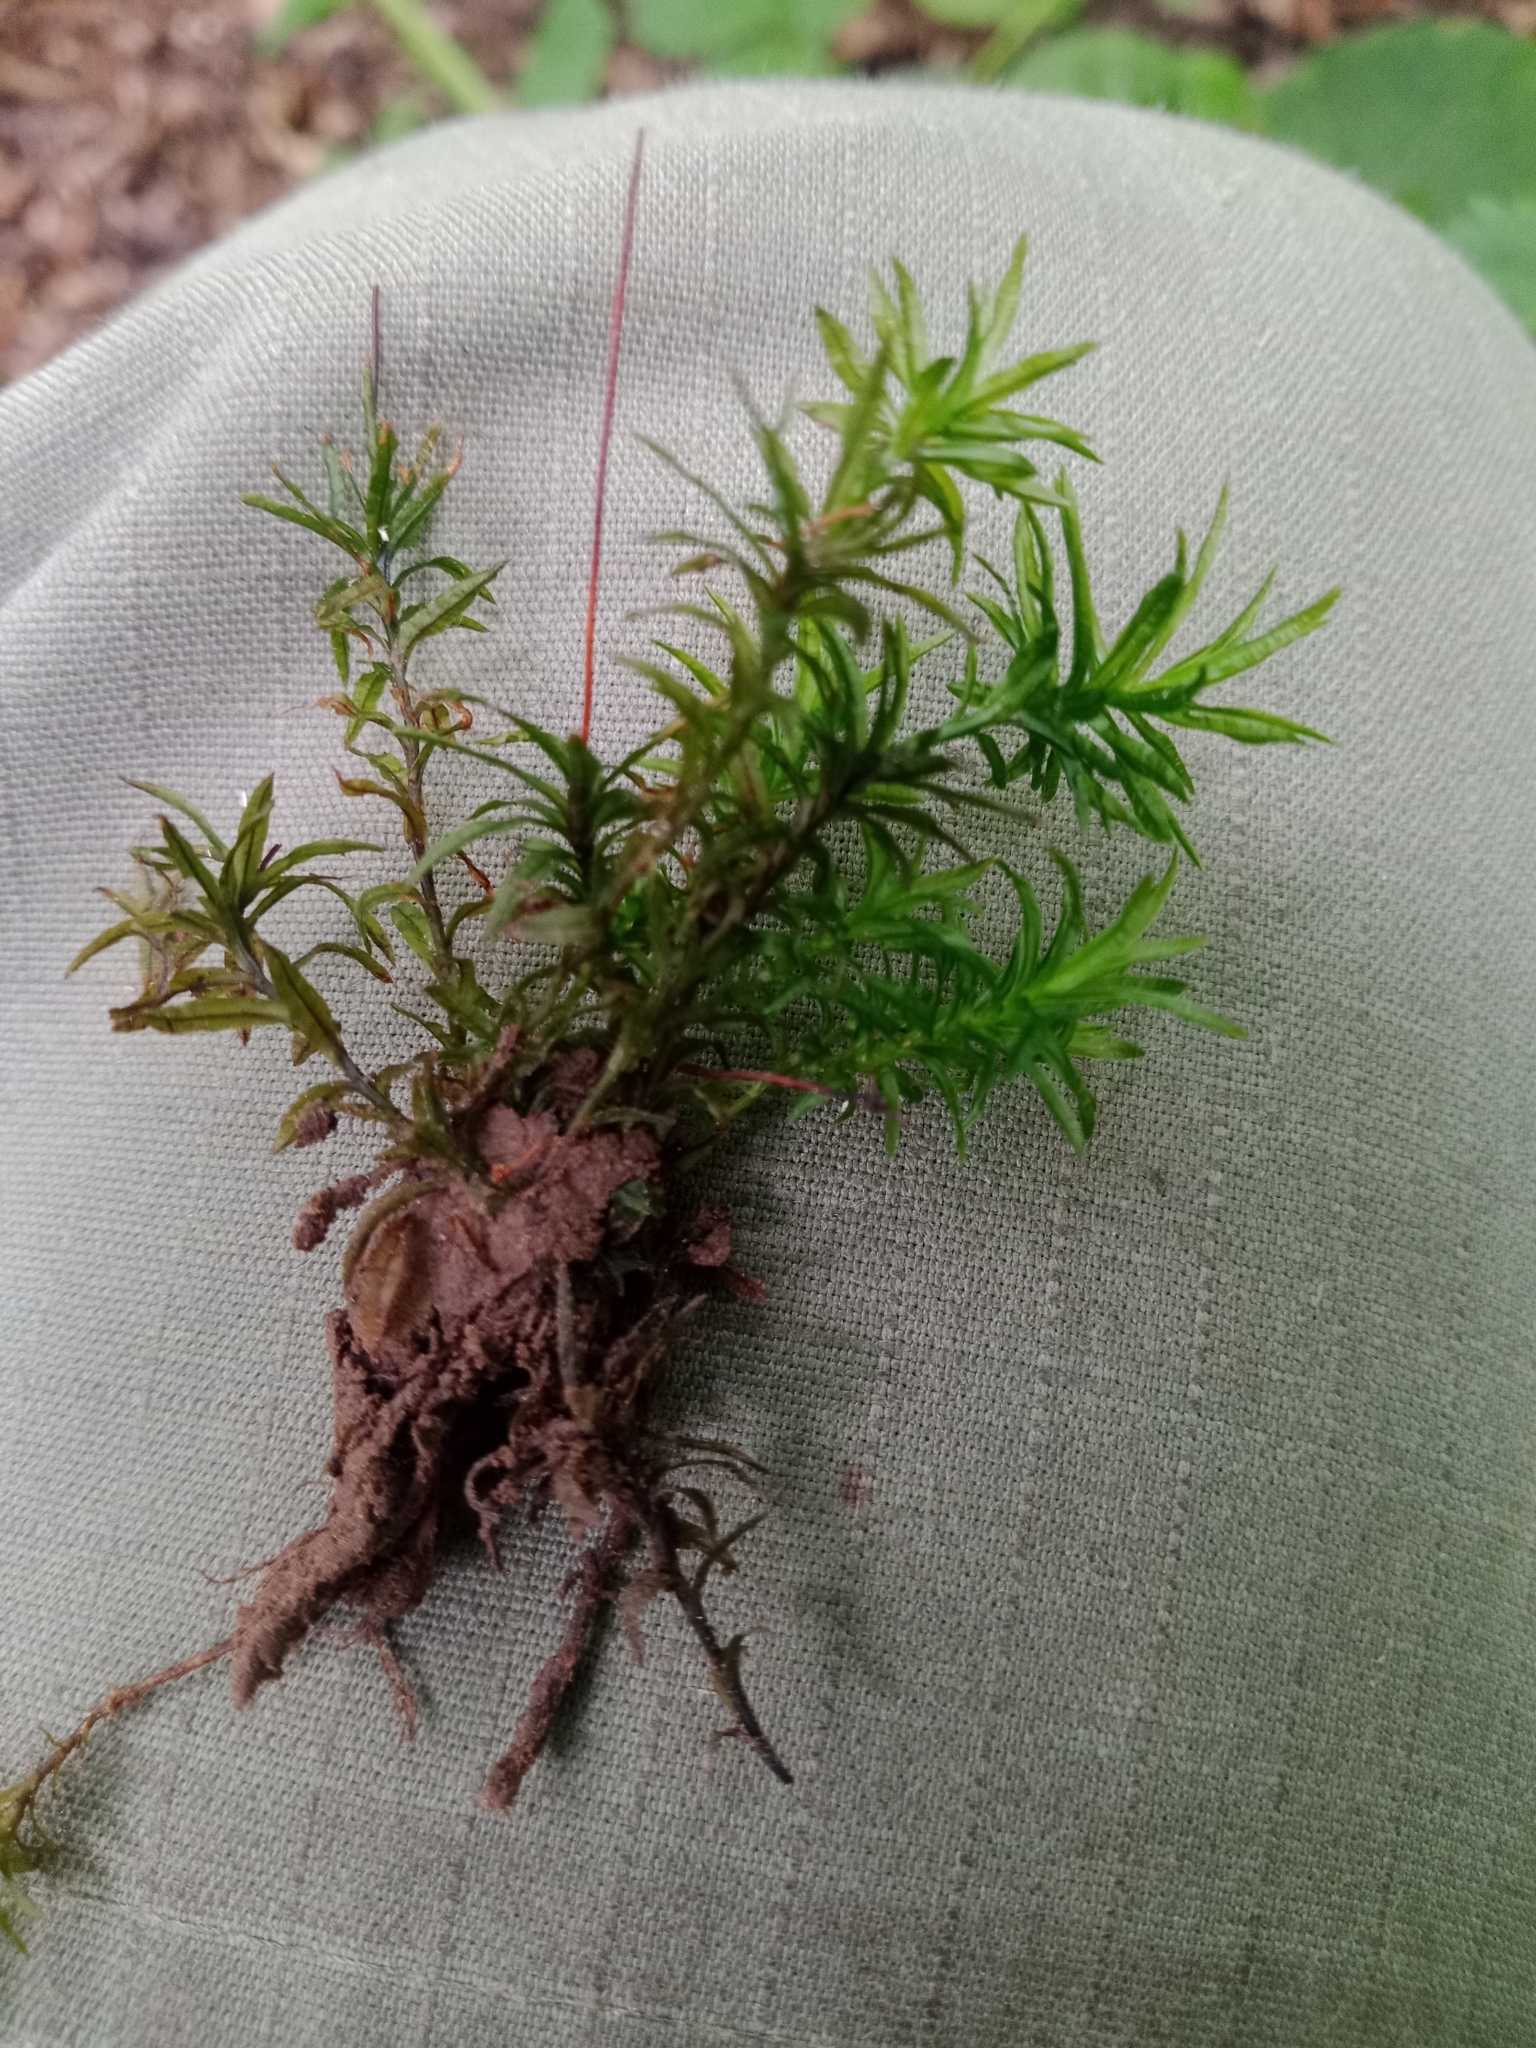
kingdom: Plantae
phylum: Bryophyta
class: Polytrichopsida
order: Polytrichales
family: Polytrichaceae
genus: Atrichum
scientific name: Atrichum undulatum
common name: Common smoothcap
